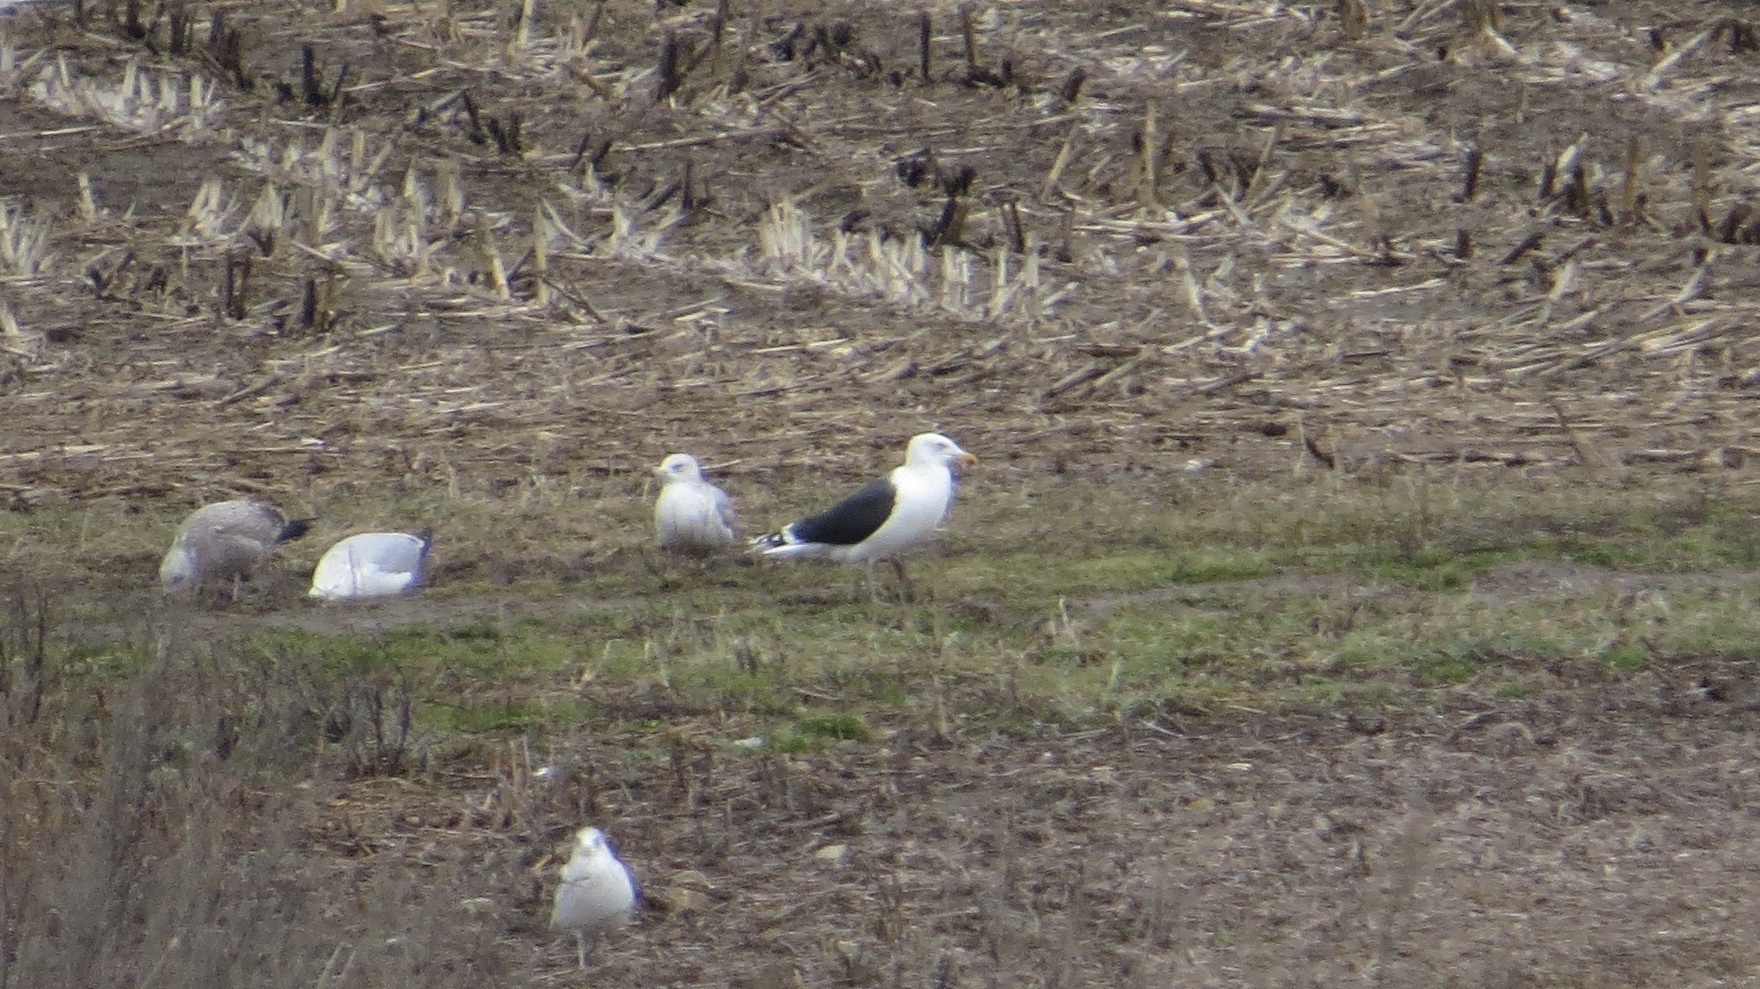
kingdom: Animalia
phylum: Chordata
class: Aves
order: Charadriiformes
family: Laridae
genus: Larus
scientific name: Larus marinus
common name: Great black-backed gull
